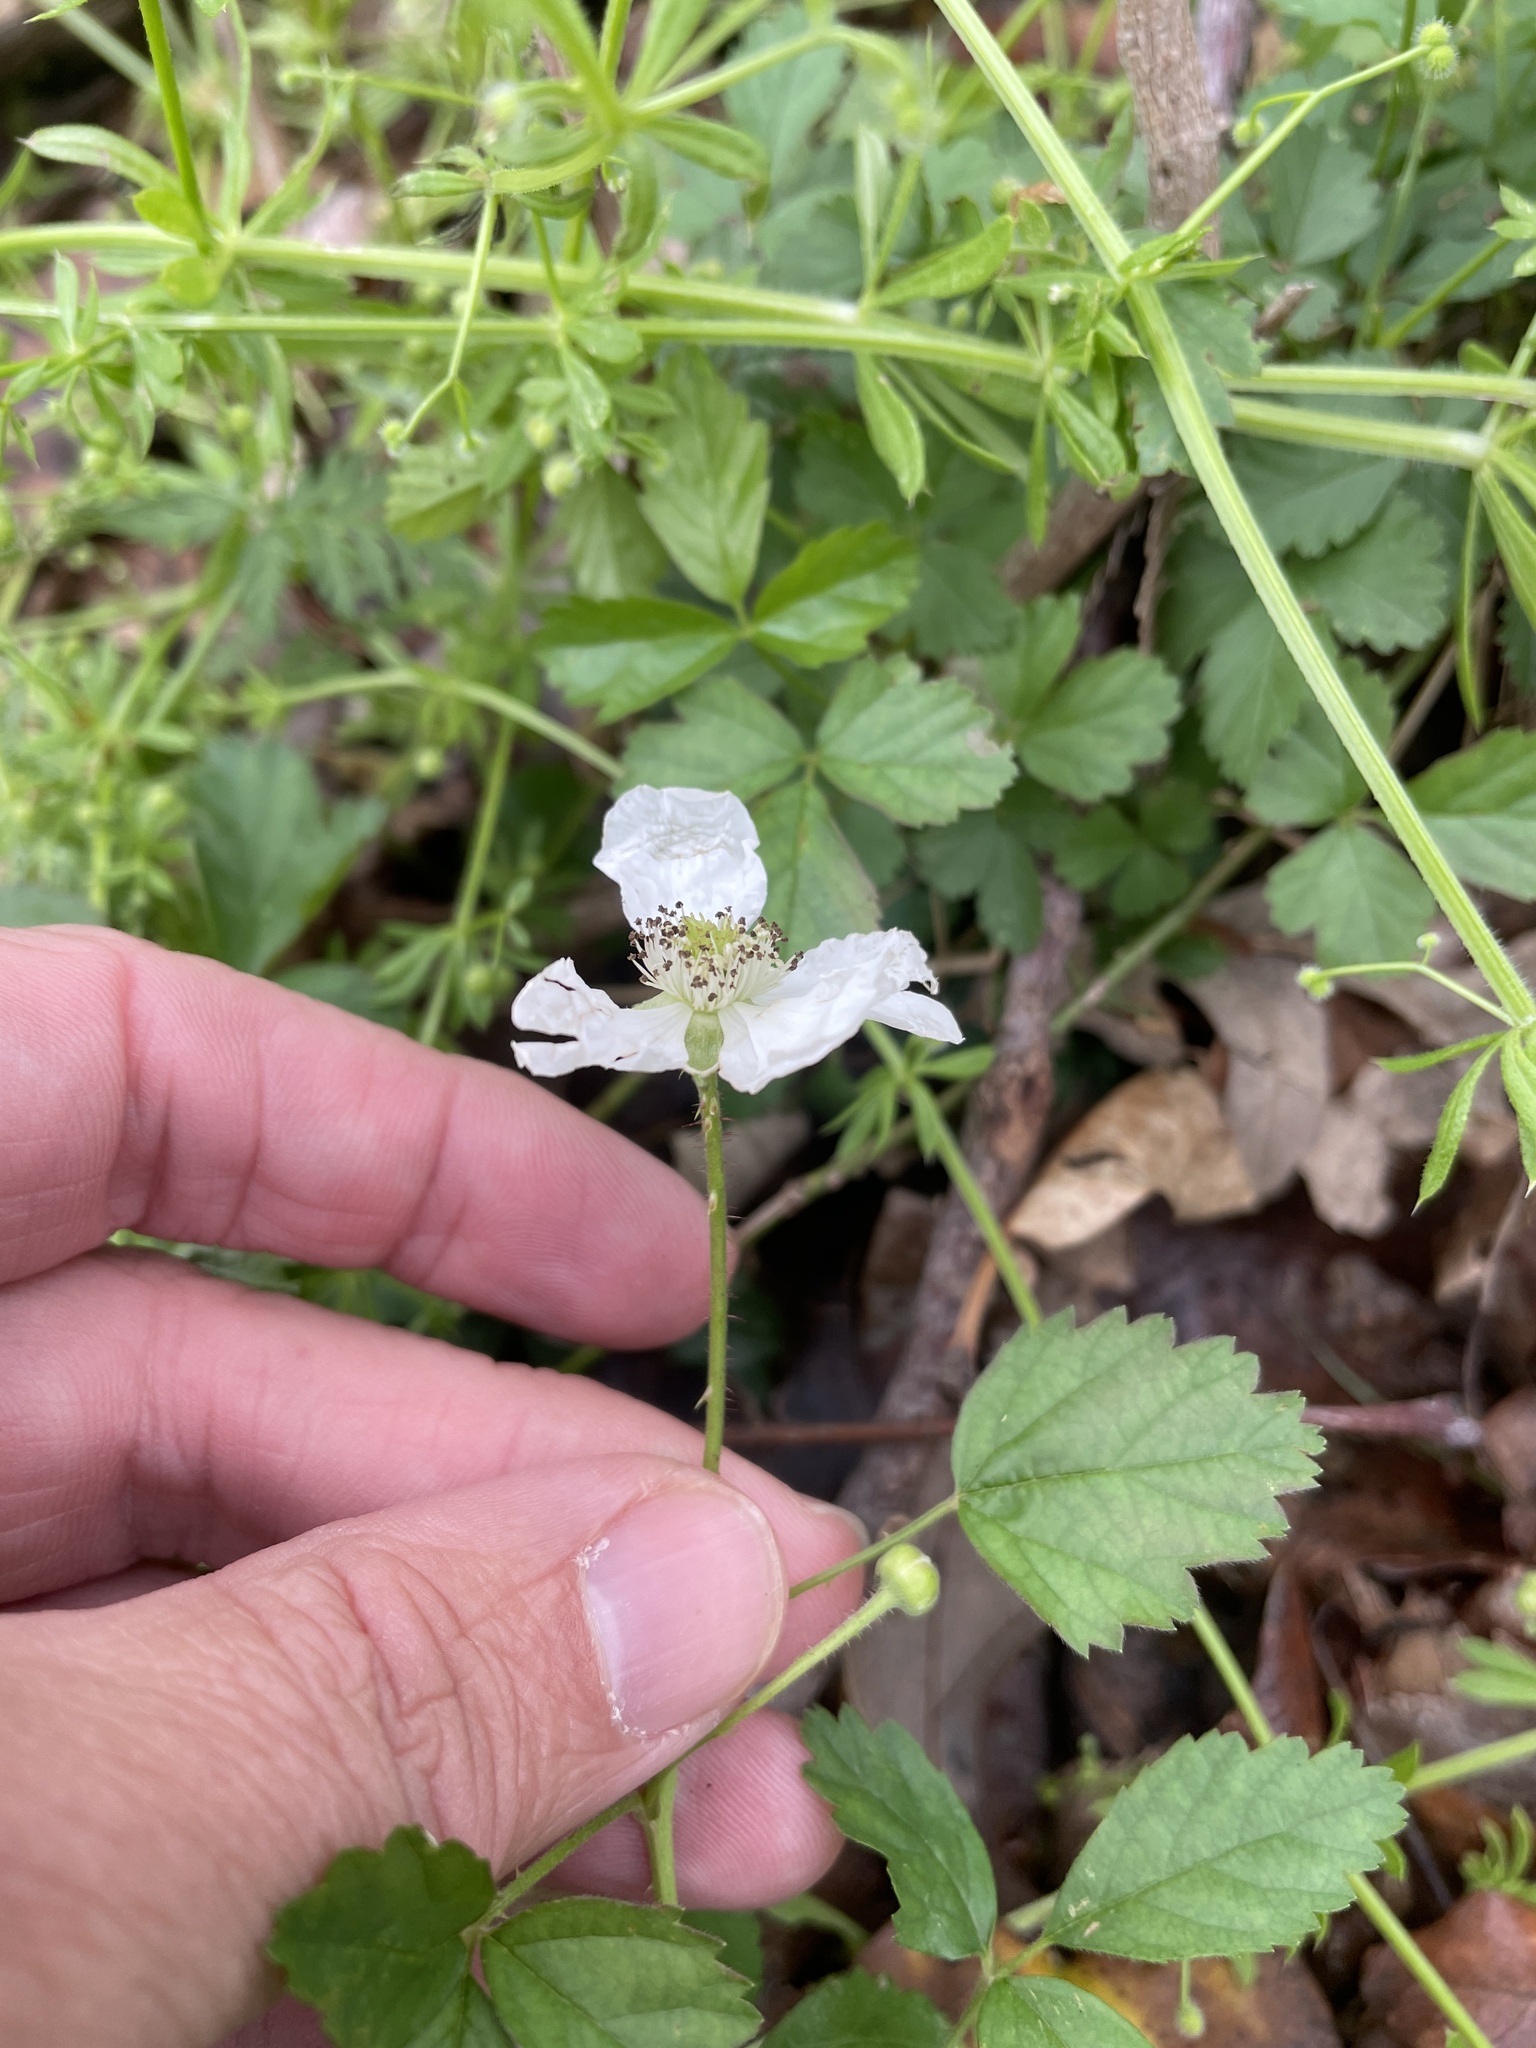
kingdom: Plantae
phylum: Tracheophyta
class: Magnoliopsida
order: Rosales
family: Rosaceae
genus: Rubus
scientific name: Rubus trivialis
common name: Southern dewberry
